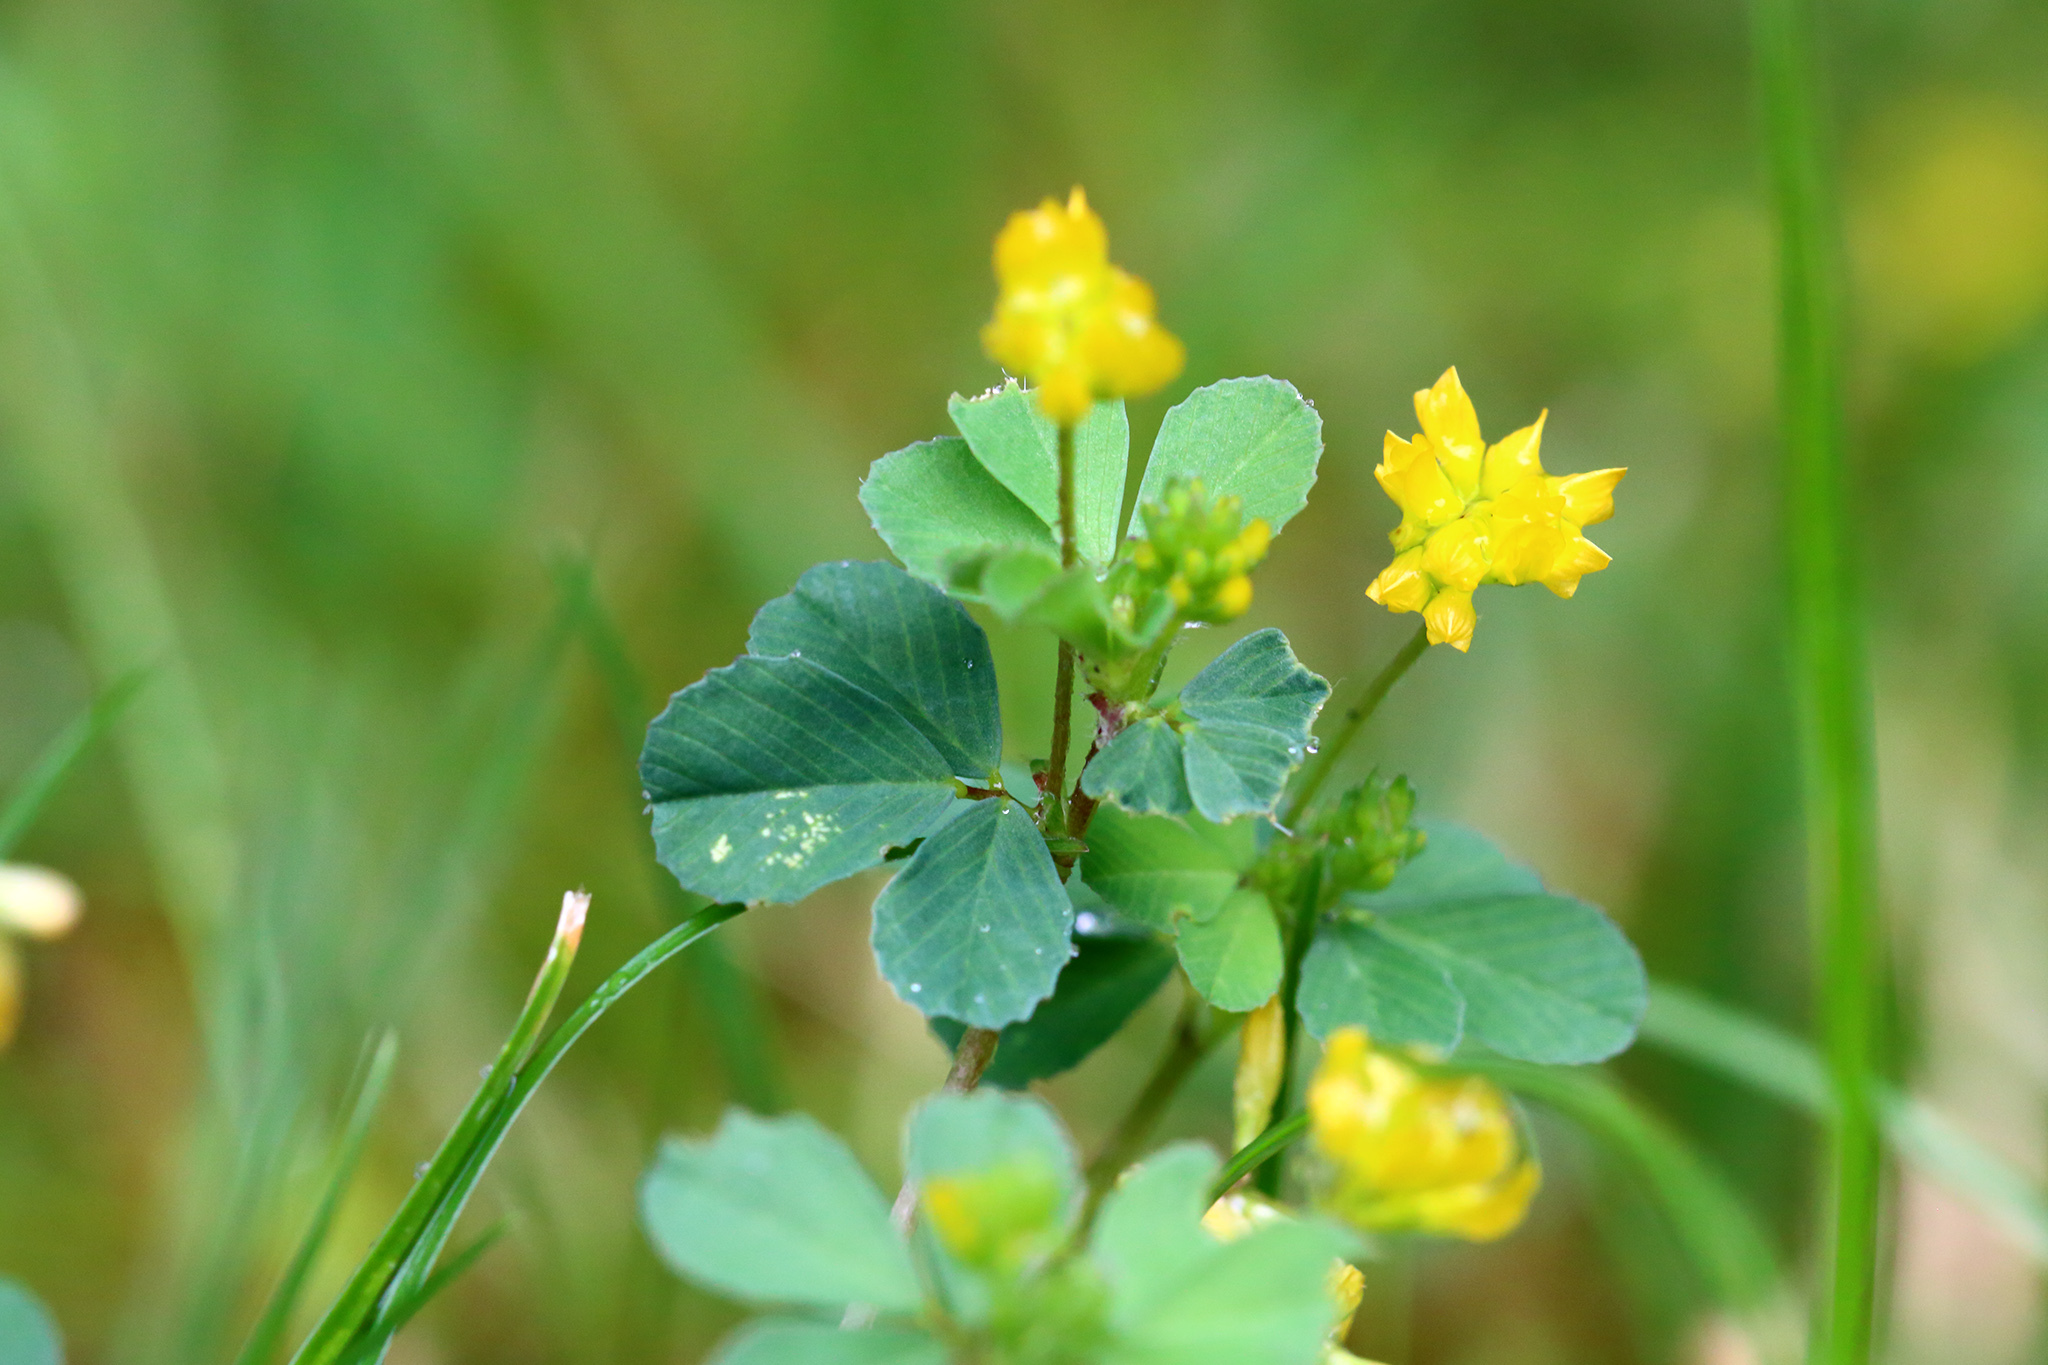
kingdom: Plantae
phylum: Tracheophyta
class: Magnoliopsida
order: Fabales
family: Fabaceae
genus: Trifolium
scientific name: Trifolium dubium
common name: Suckling clover
